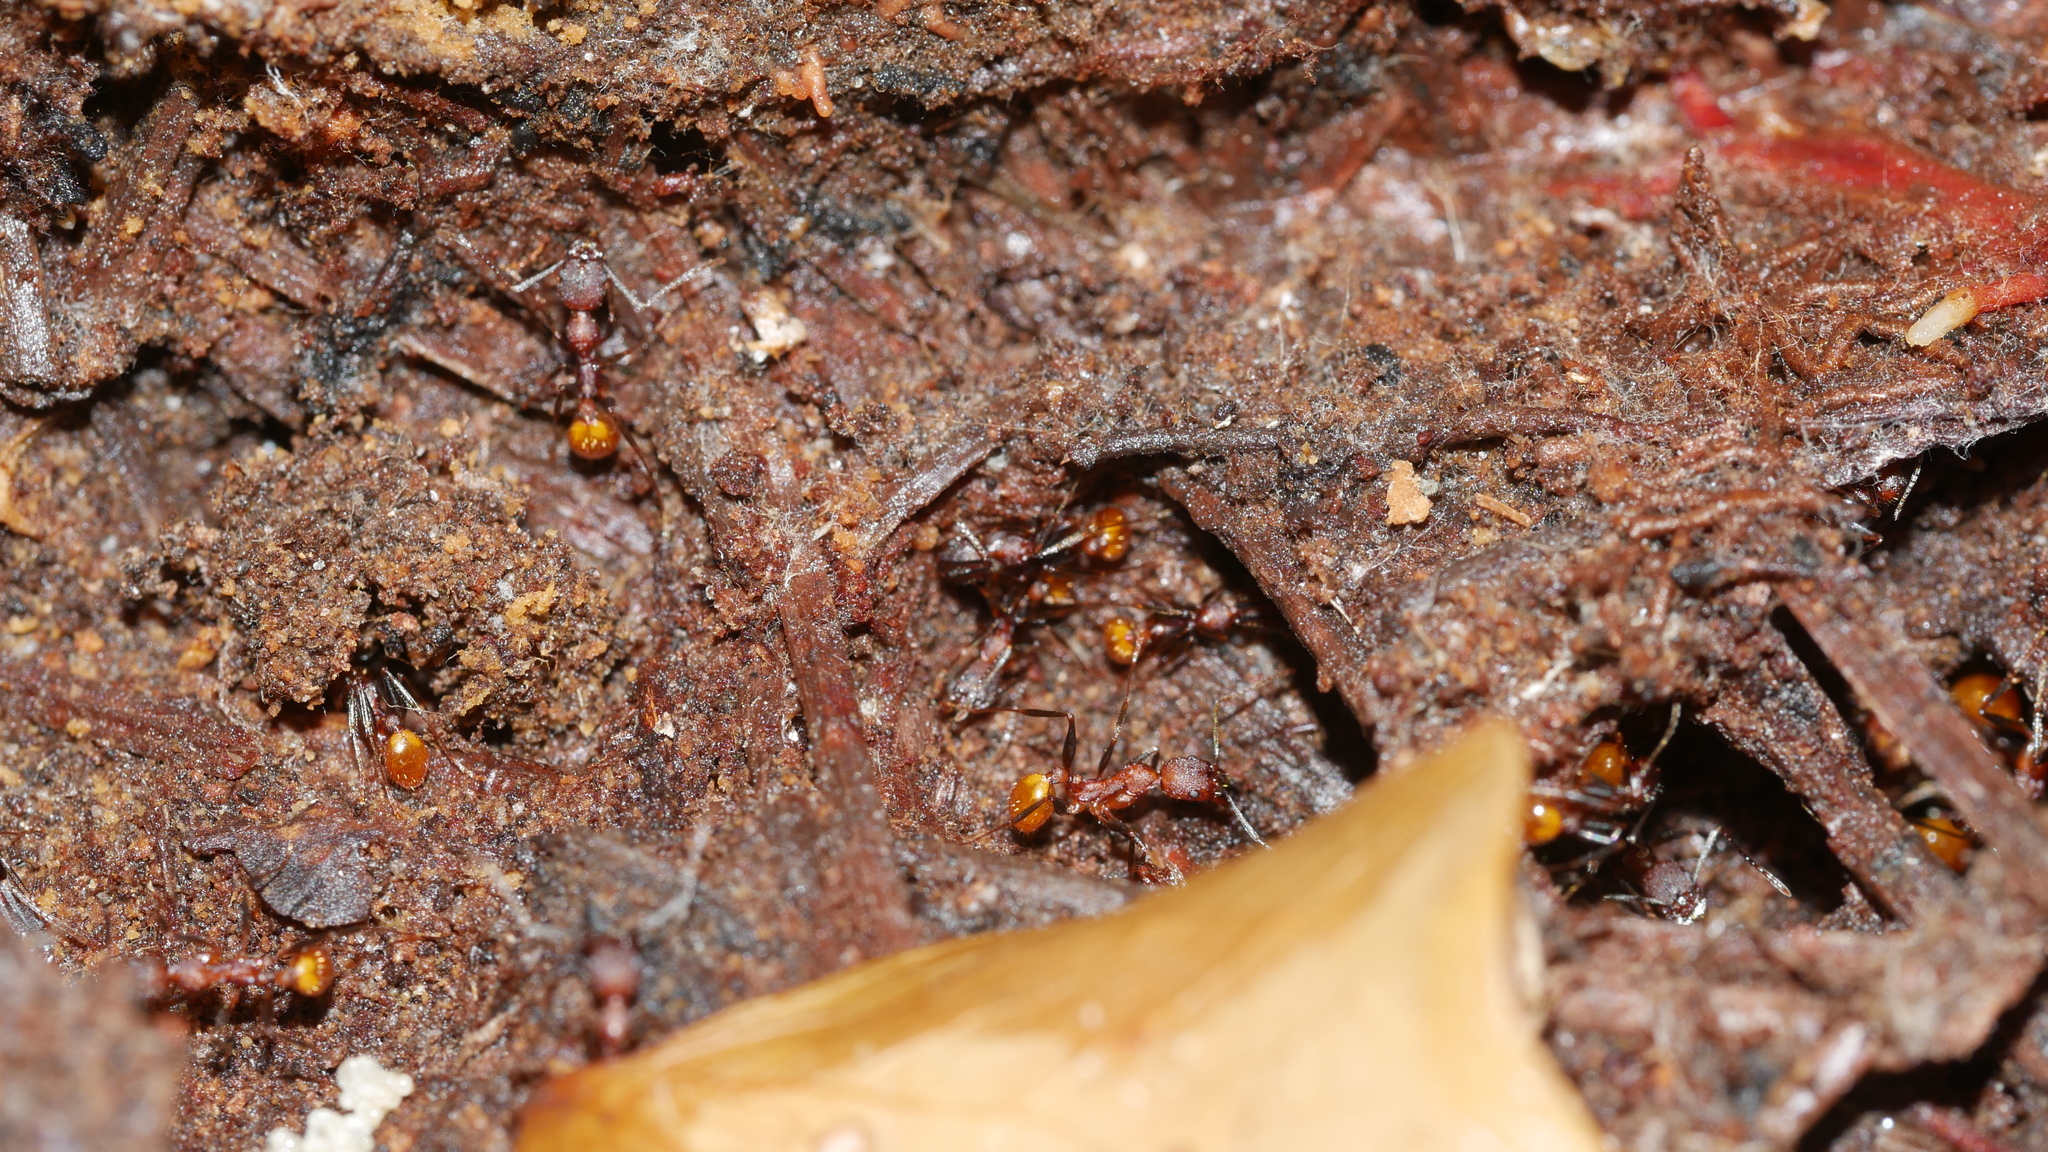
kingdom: Animalia
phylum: Arthropoda
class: Insecta
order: Hymenoptera
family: Formicidae
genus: Aphaenogaster
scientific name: Aphaenogaster lamellidens
